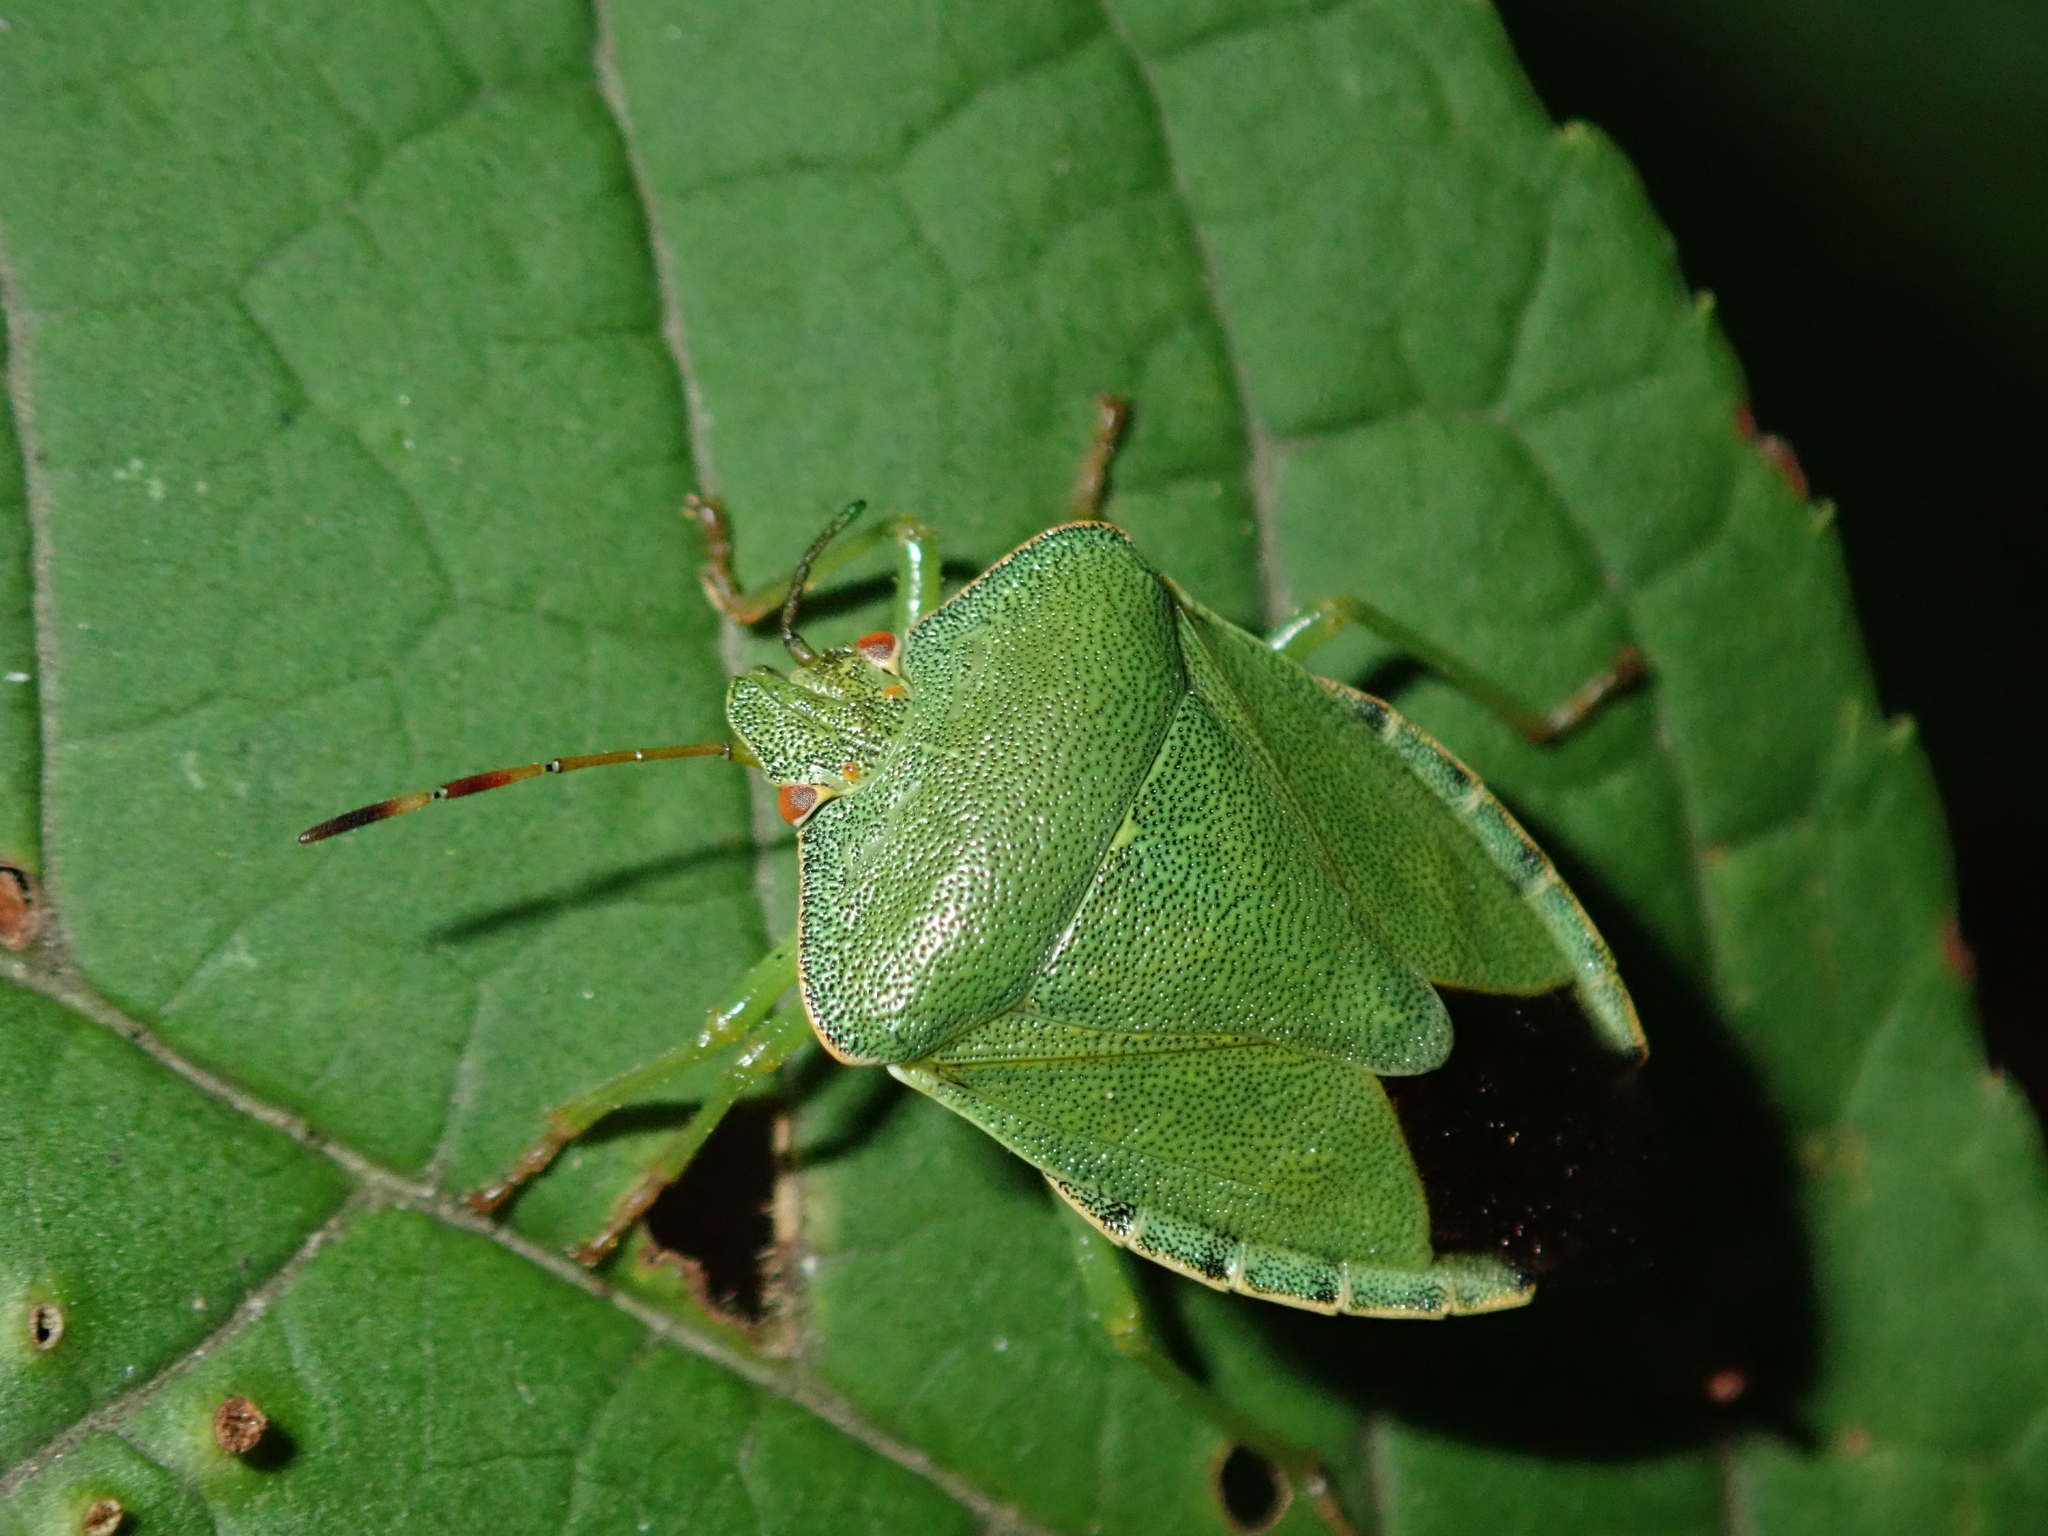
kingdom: Animalia
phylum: Arthropoda
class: Insecta
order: Hemiptera
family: Pentatomidae
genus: Palomena
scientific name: Palomena prasina
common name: Green shieldbug
